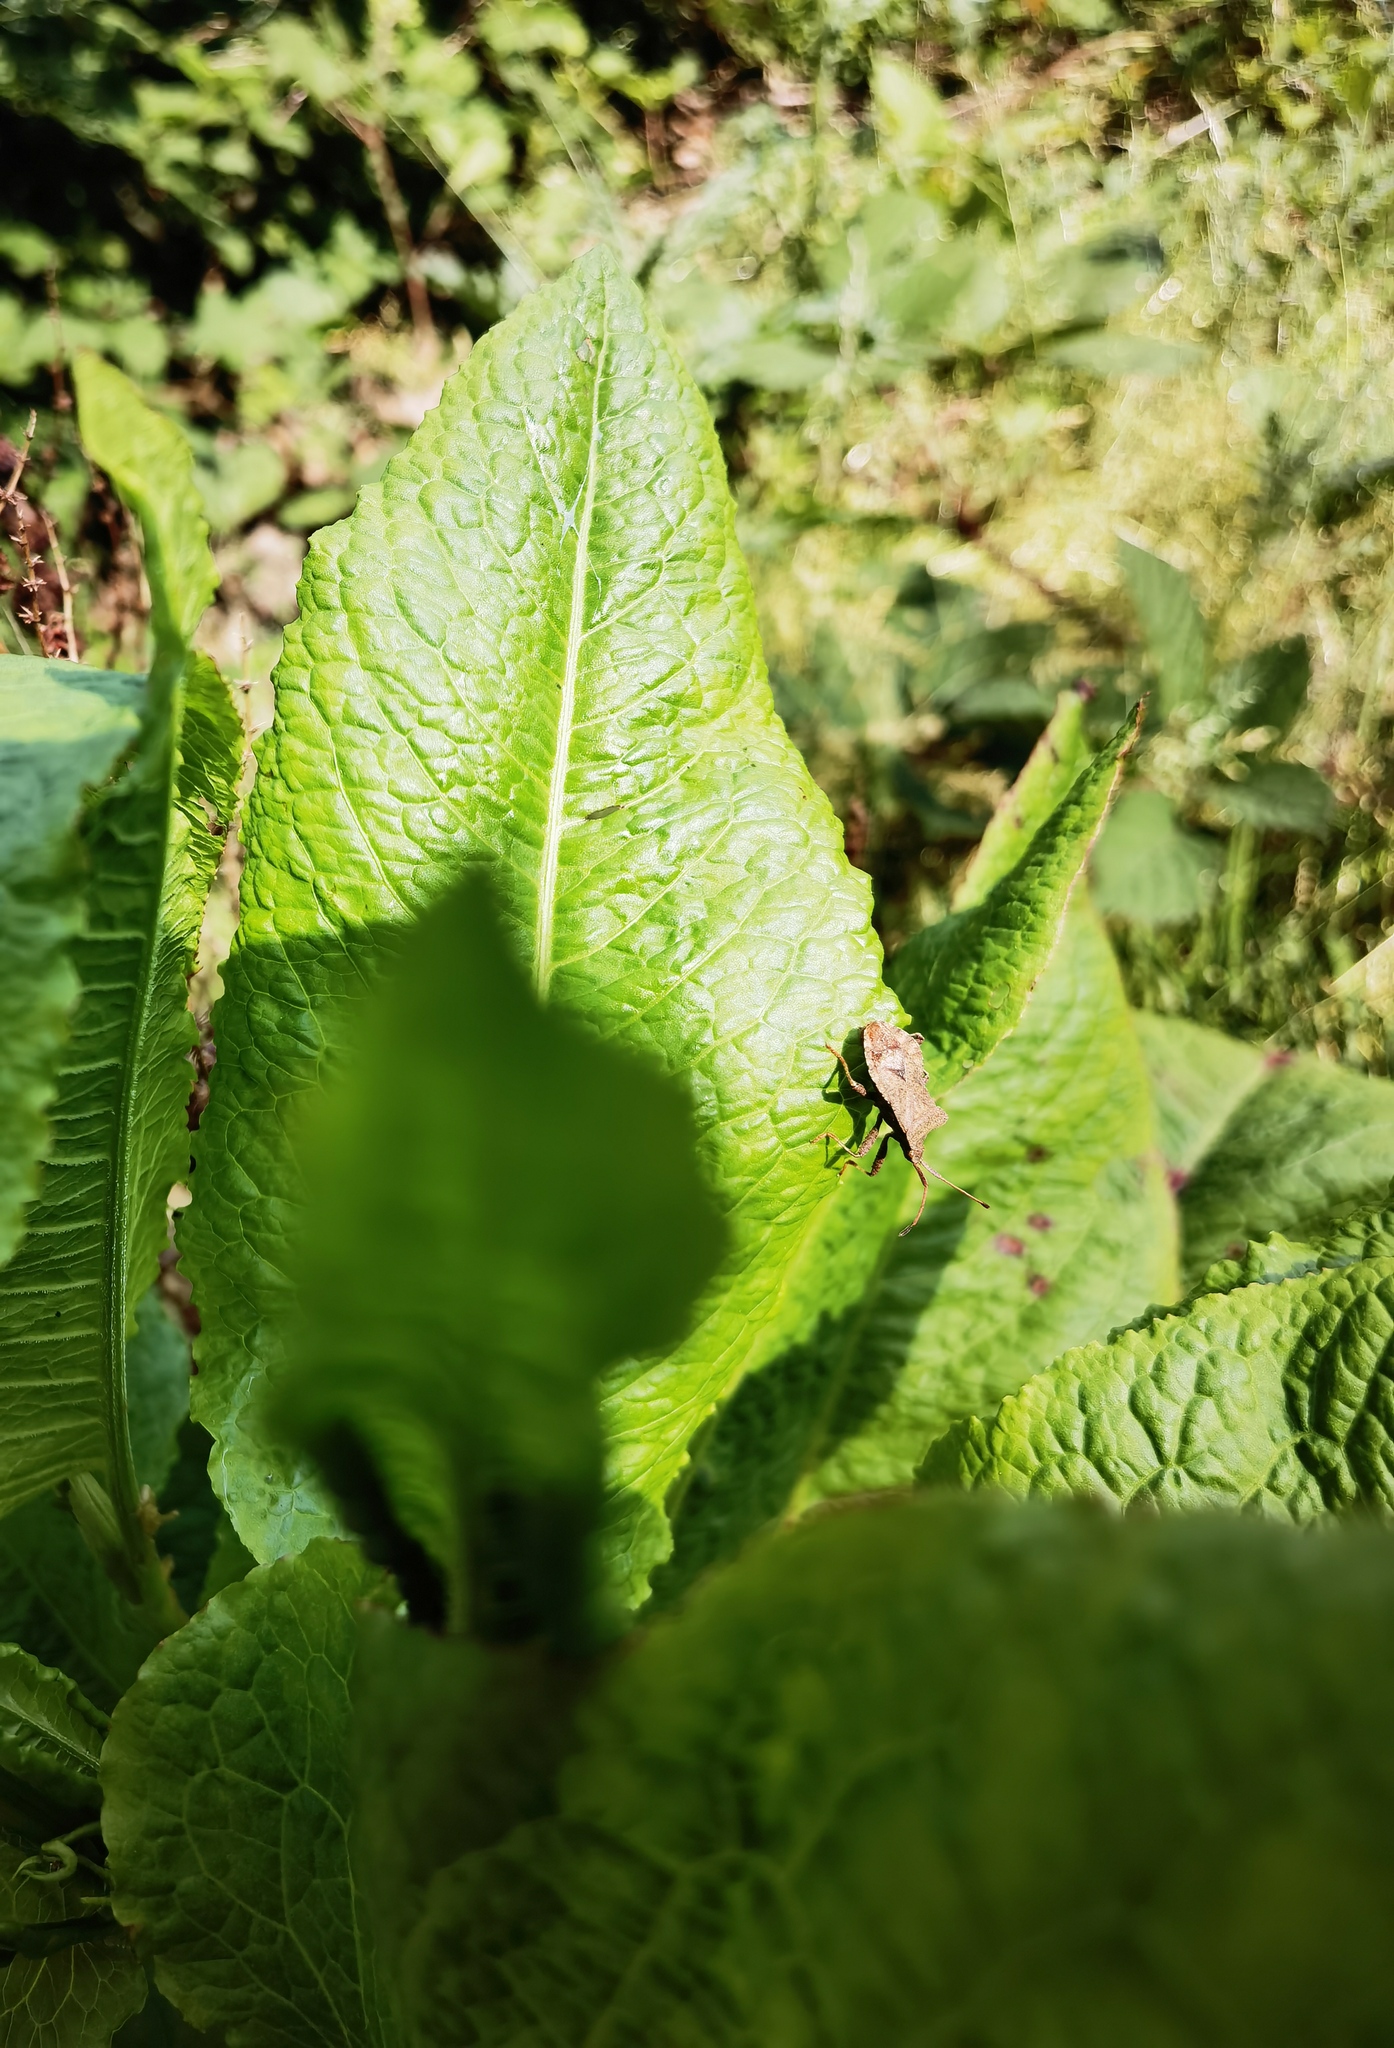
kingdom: Animalia
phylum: Arthropoda
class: Insecta
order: Hemiptera
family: Coreidae
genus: Coreus
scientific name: Coreus marginatus
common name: Dock bug
